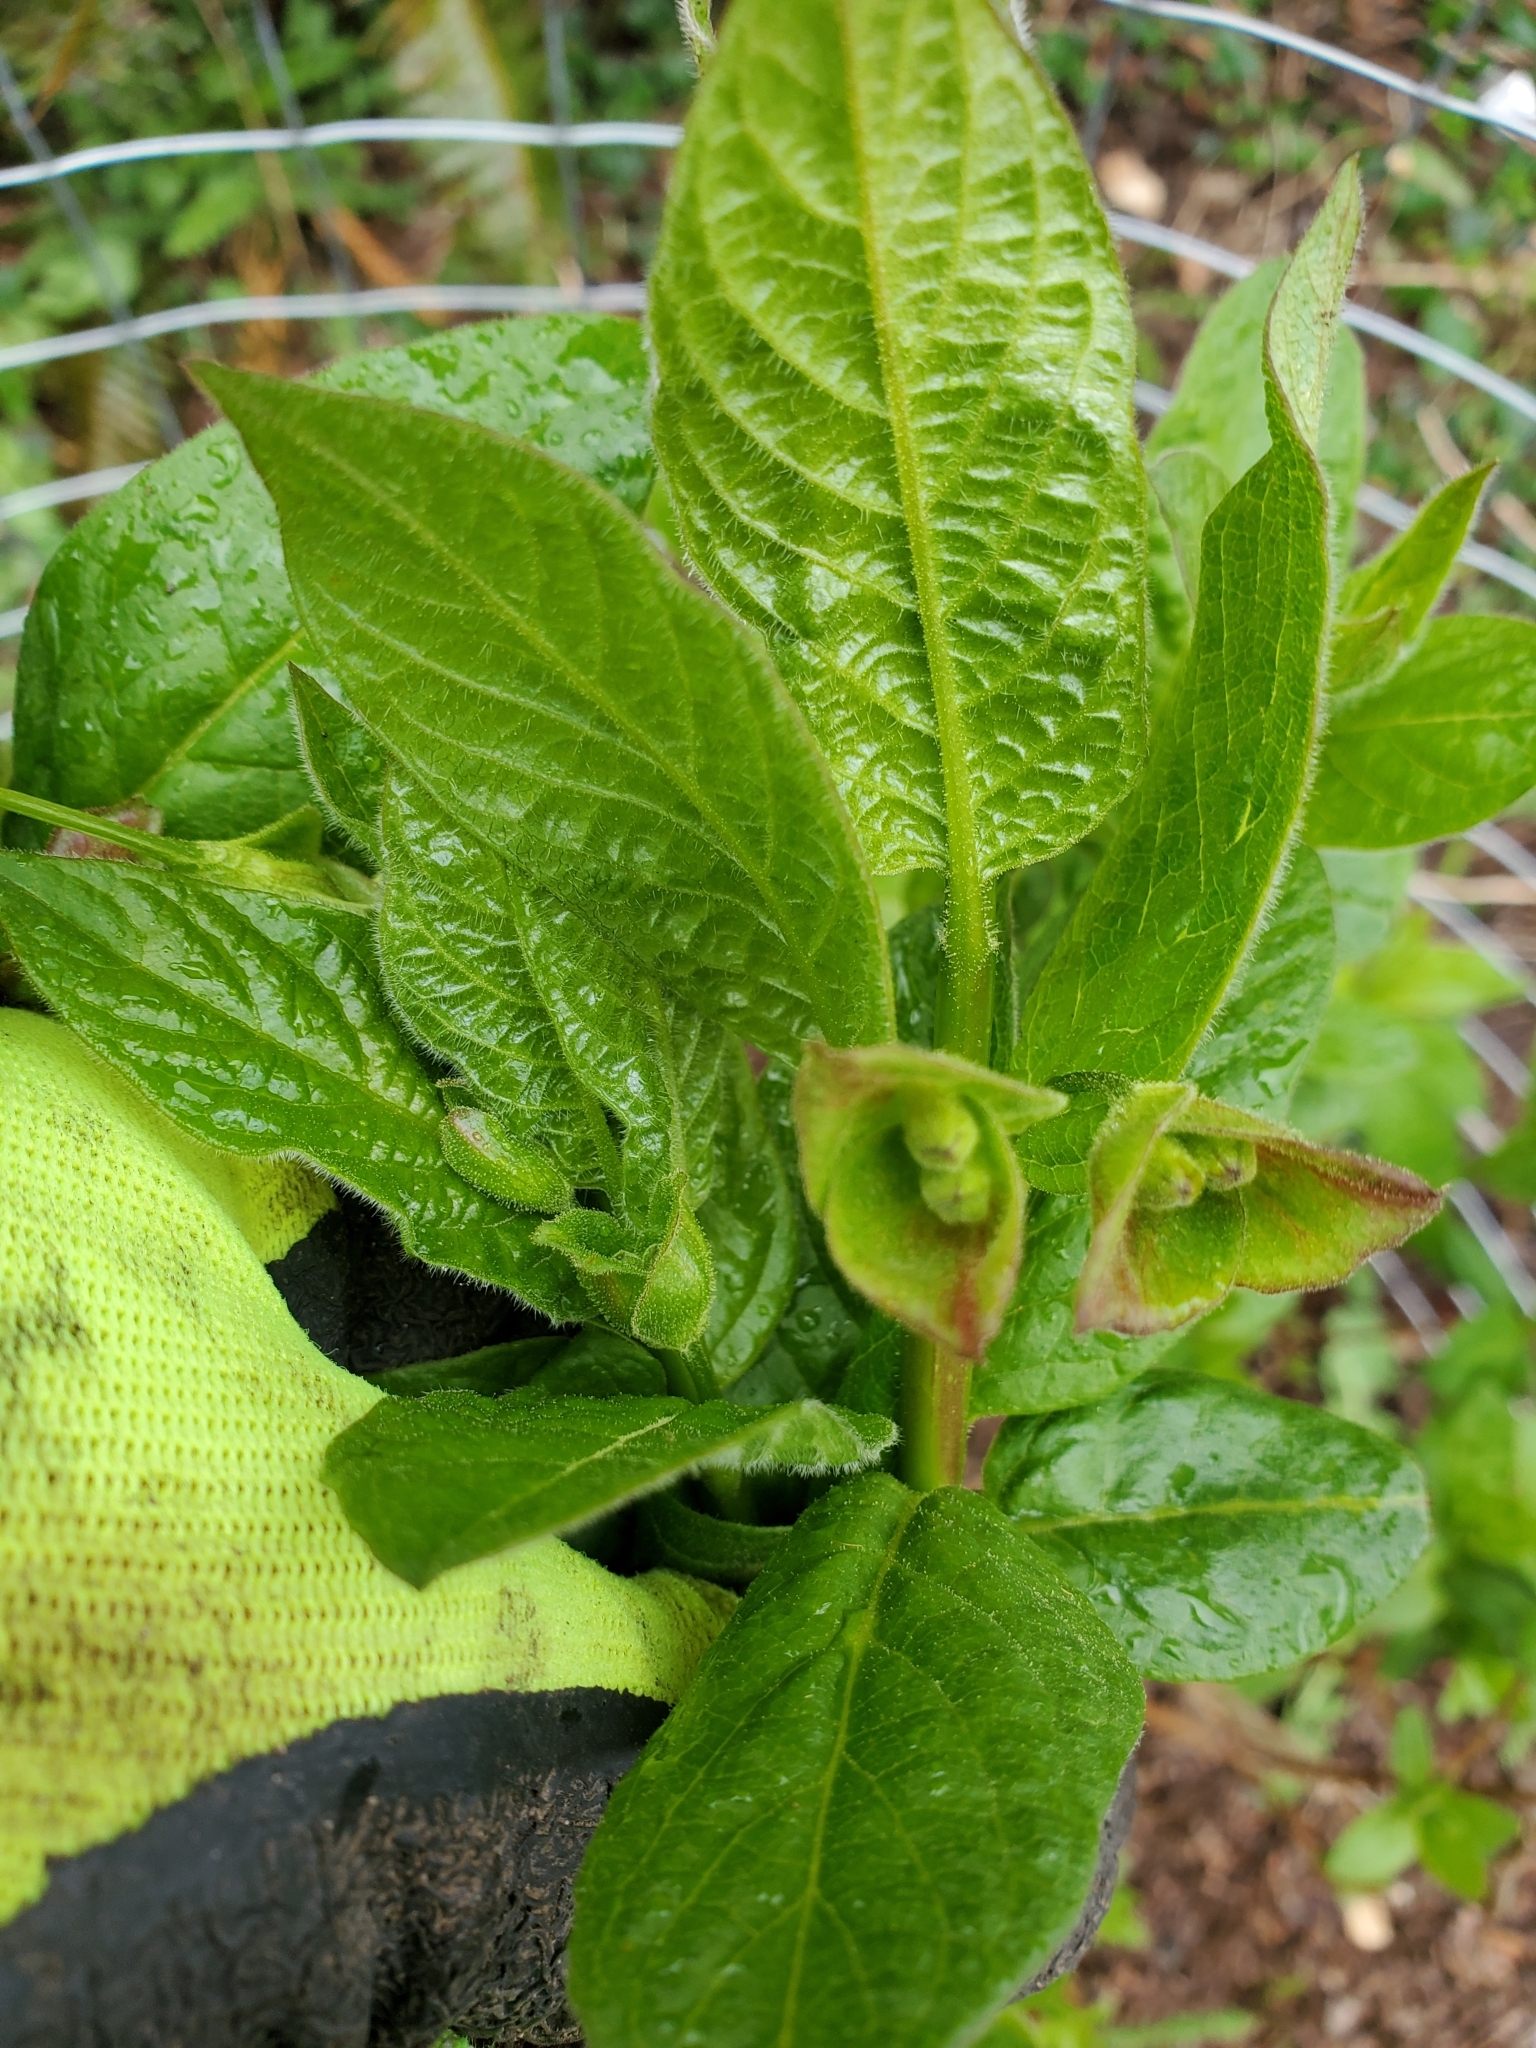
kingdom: Plantae
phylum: Tracheophyta
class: Magnoliopsida
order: Dipsacales
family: Caprifoliaceae
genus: Lonicera
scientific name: Lonicera involucrata
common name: Californian honeysuckle
